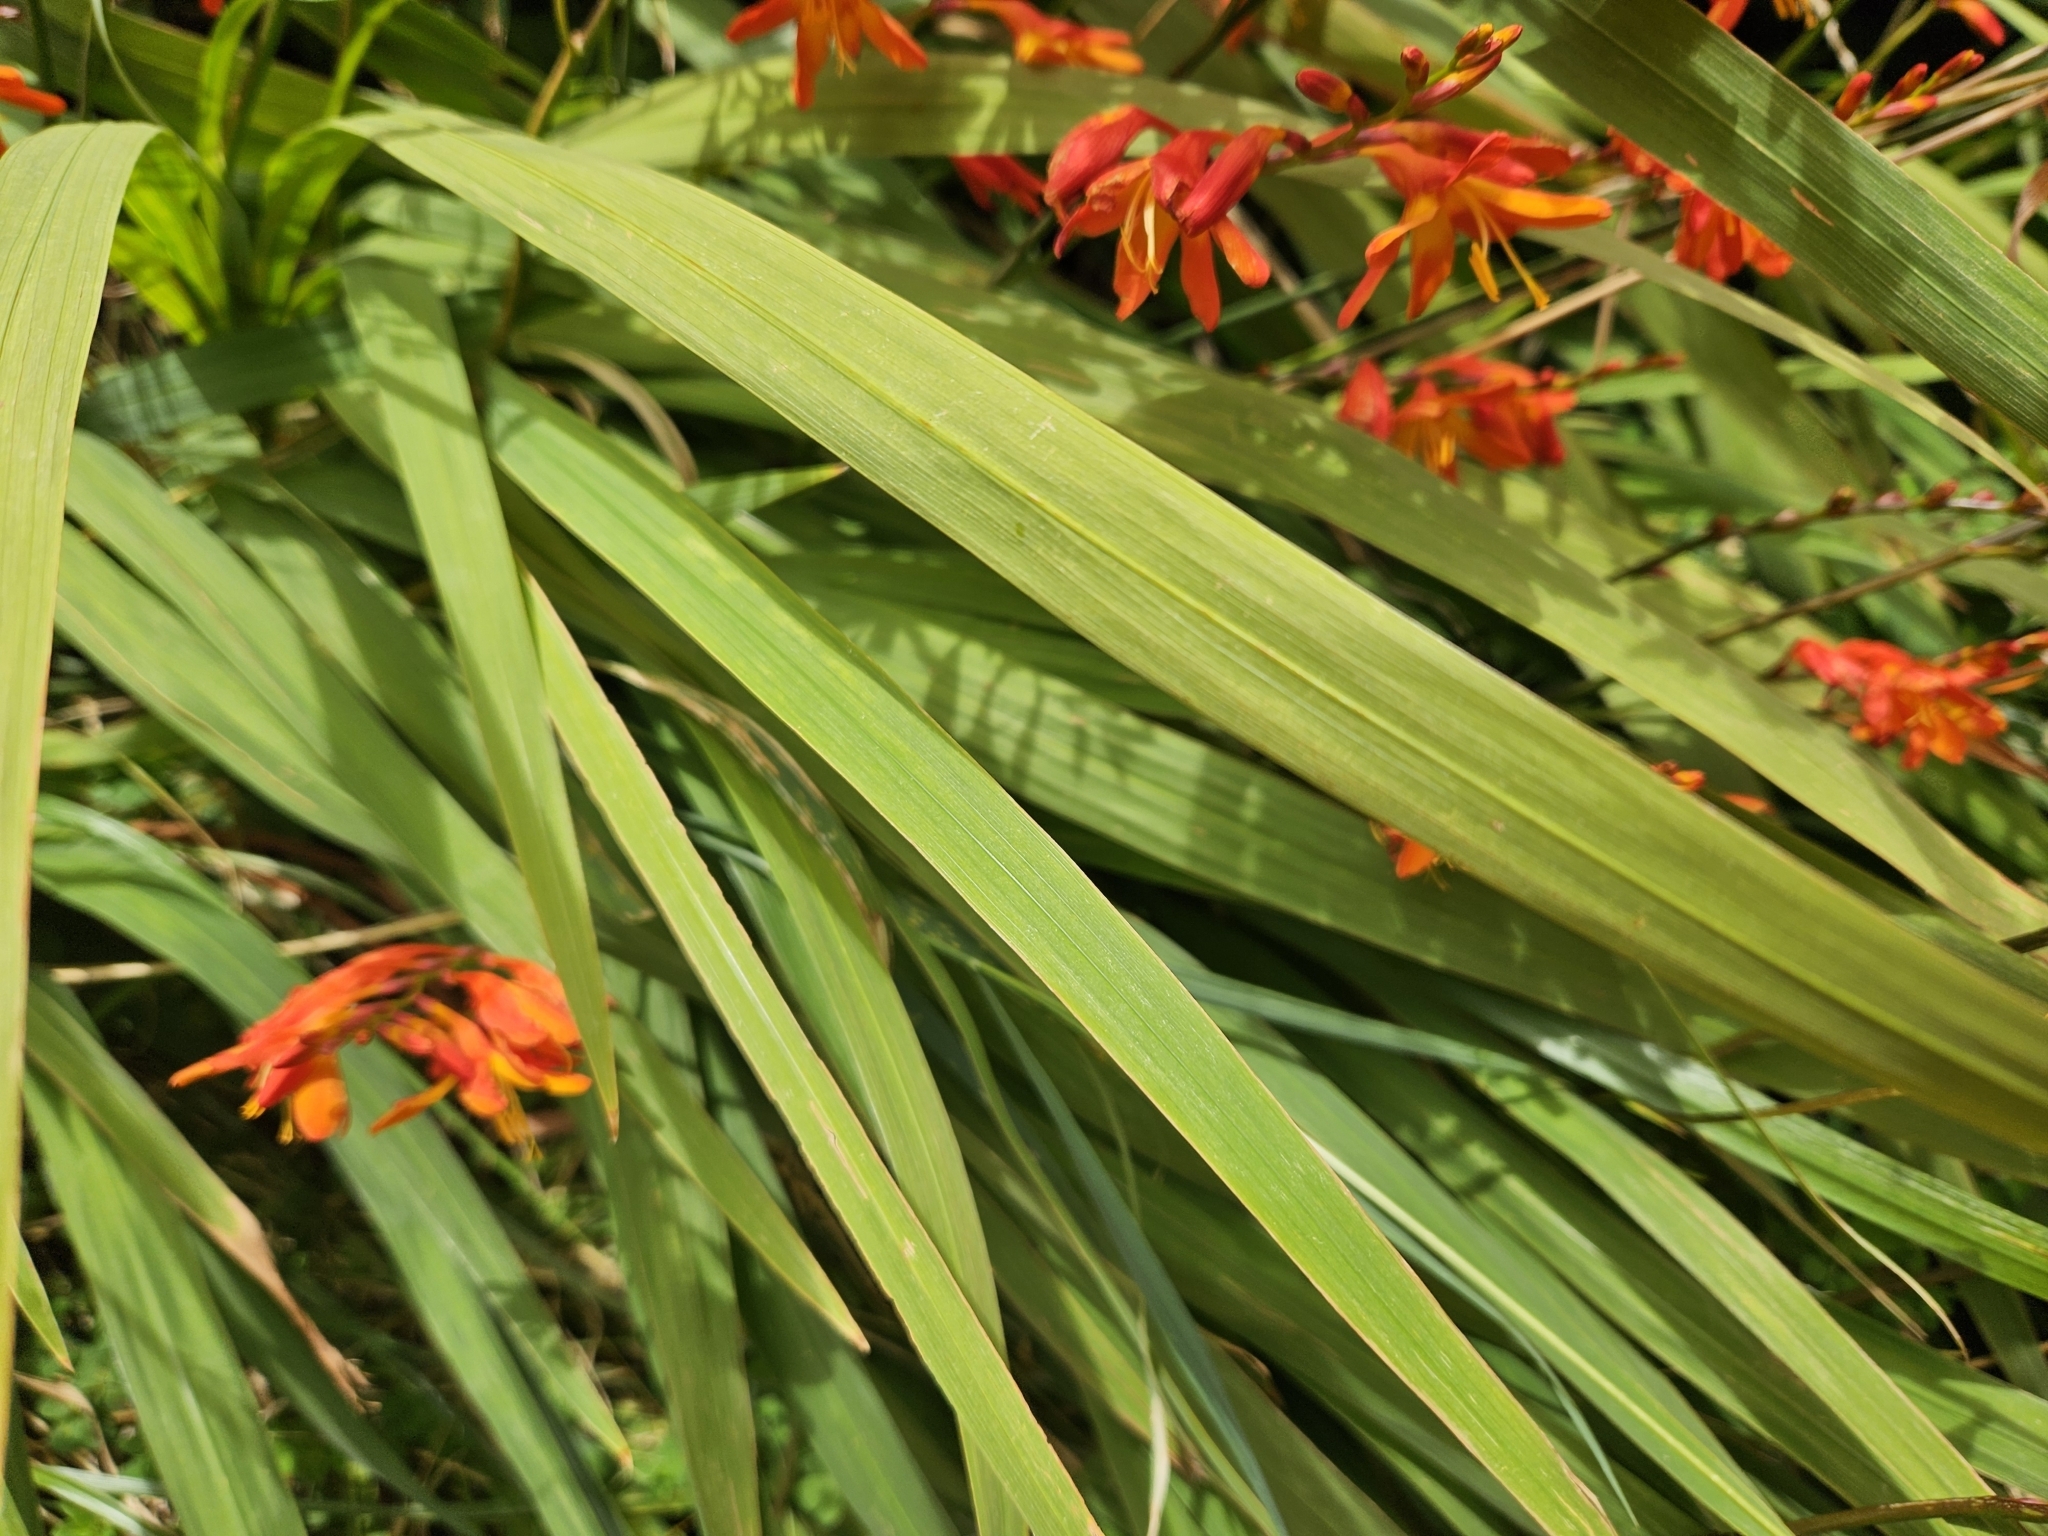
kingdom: Plantae
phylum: Tracheophyta
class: Liliopsida
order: Asparagales
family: Iridaceae
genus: Crocosmia
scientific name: Crocosmia crocosmiiflora
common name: Montbretia
